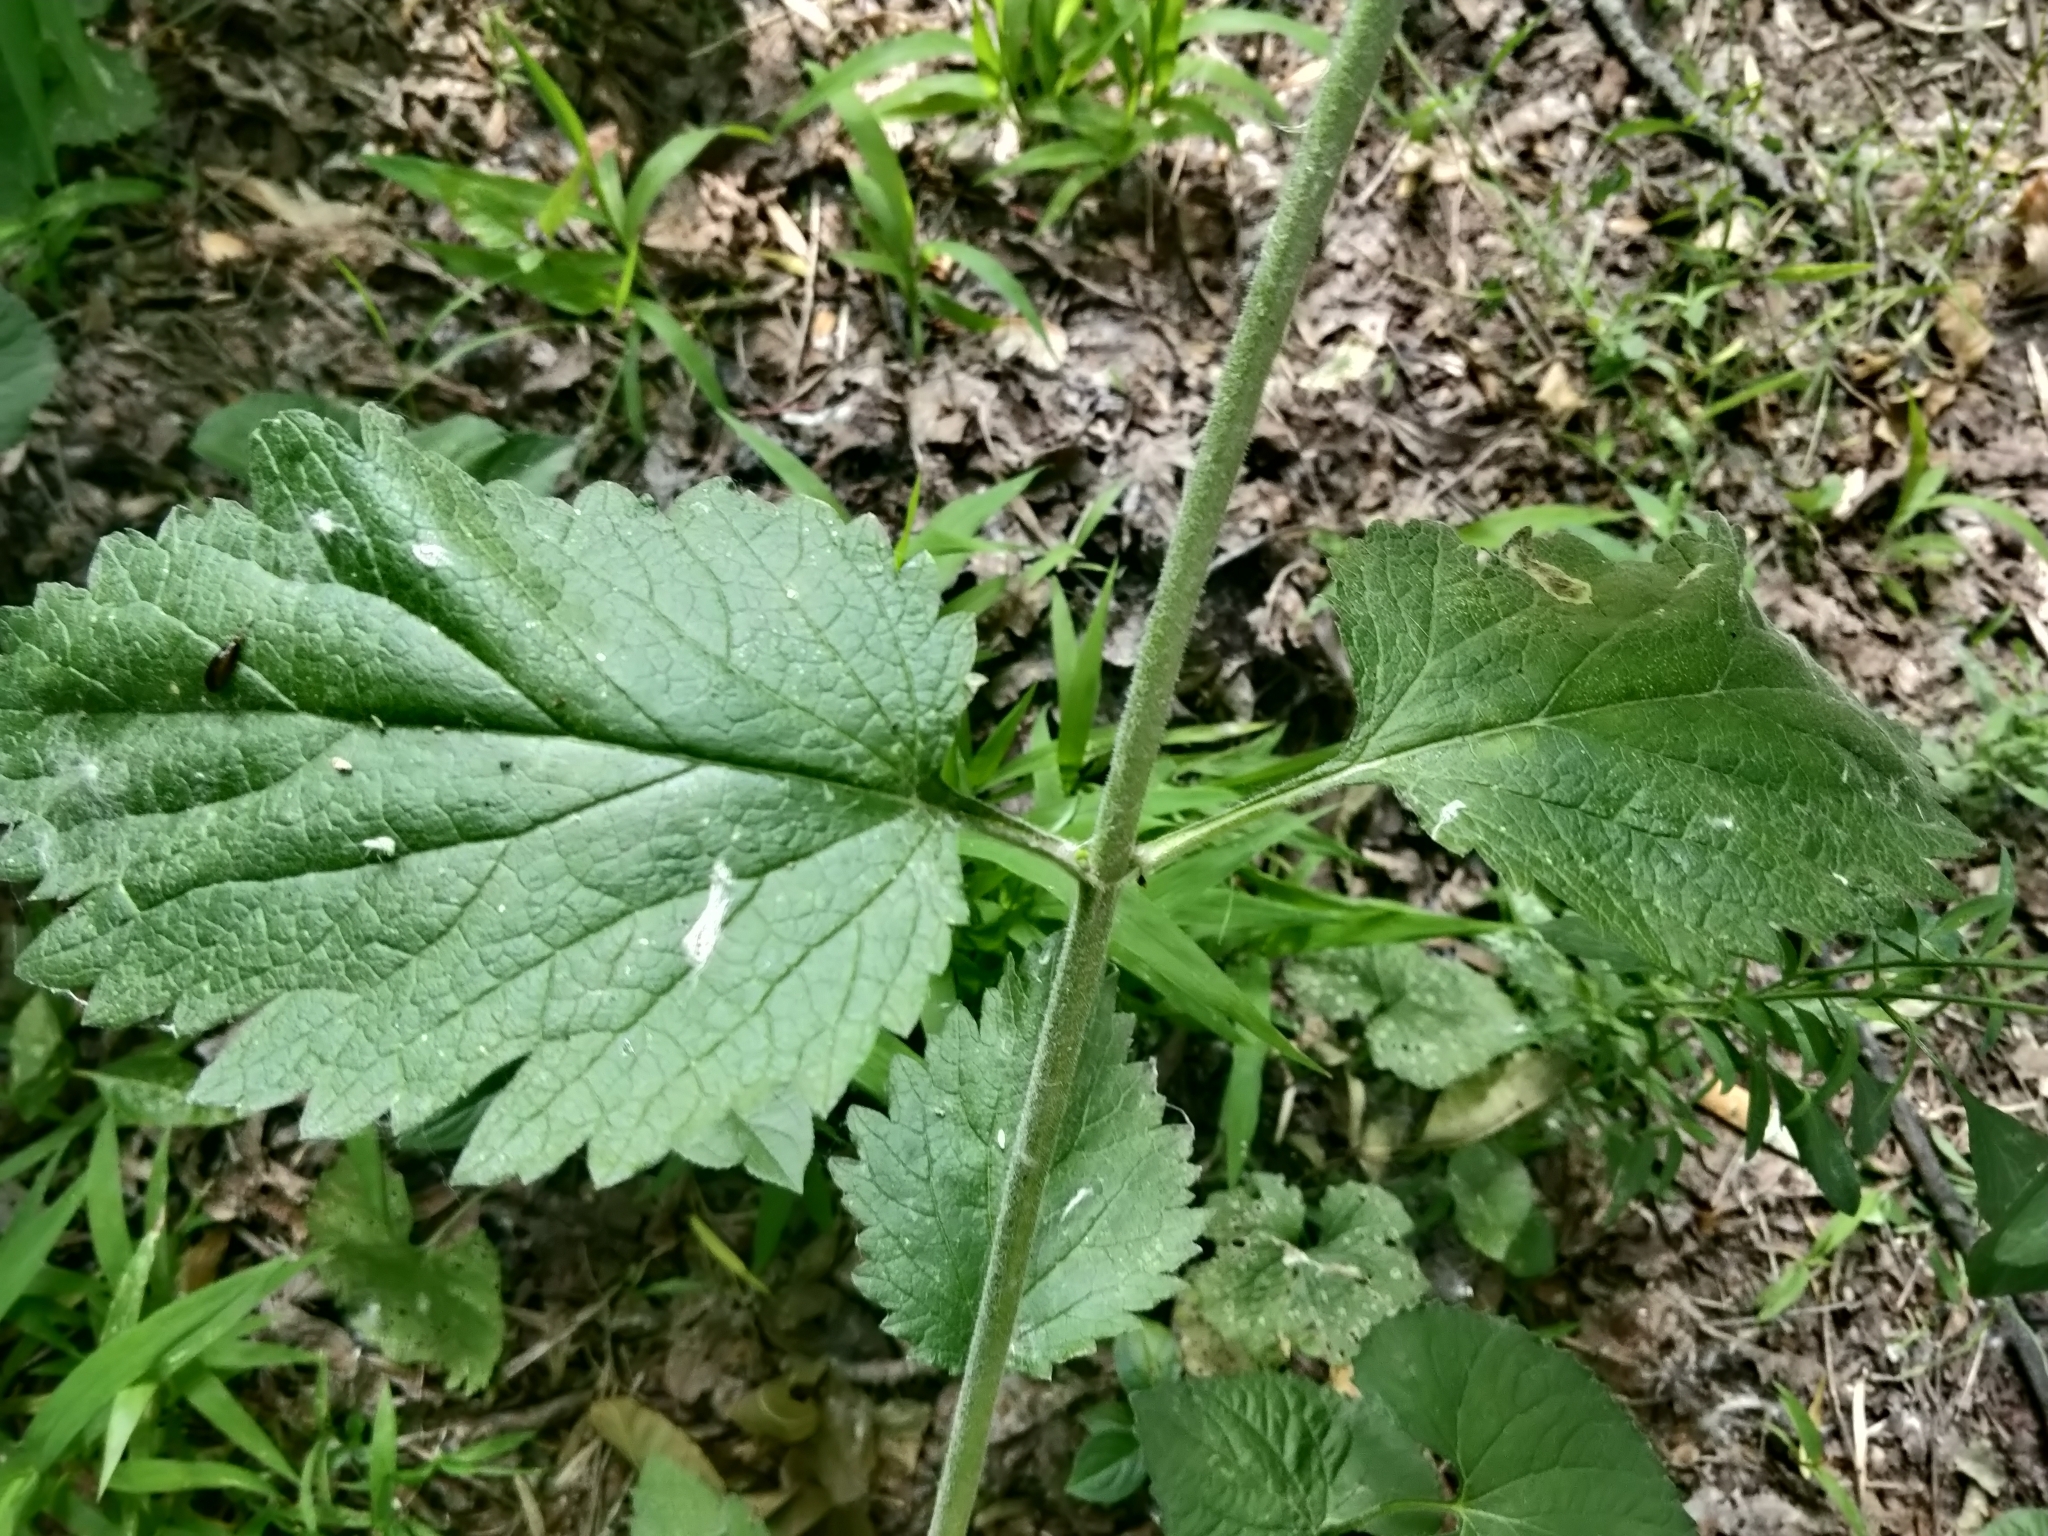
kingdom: Plantae
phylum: Tracheophyta
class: Magnoliopsida
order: Lamiales
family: Verbenaceae
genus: Verbena
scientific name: Verbena urticifolia
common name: Nettle-leaved vervain
